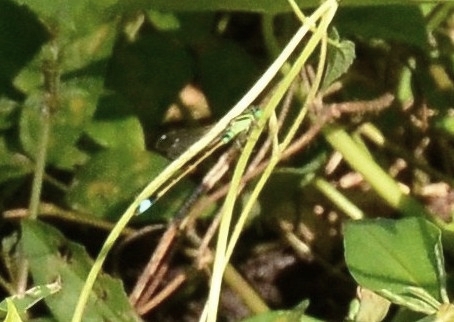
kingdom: Animalia
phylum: Arthropoda
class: Insecta
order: Odonata
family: Coenagrionidae
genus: Ischnura
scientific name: Ischnura senegalensis
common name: Tropical bluetail
